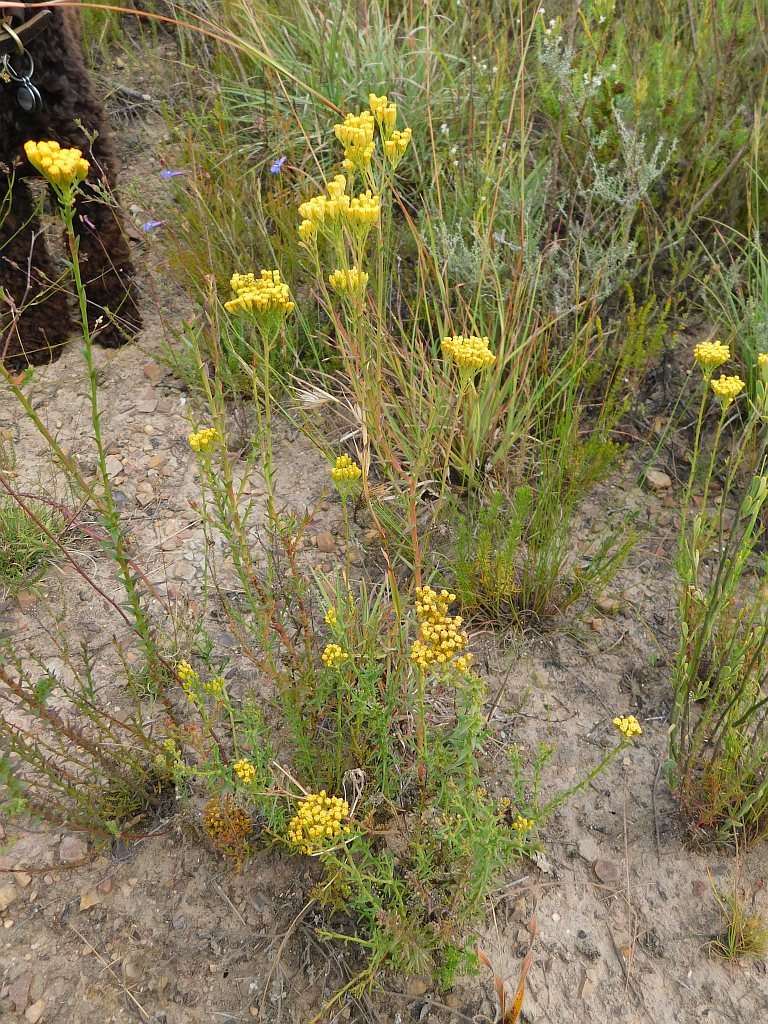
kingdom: Plantae
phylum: Tracheophyta
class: Magnoliopsida
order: Asterales
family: Asteraceae
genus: Athanasia
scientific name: Athanasia juncea
